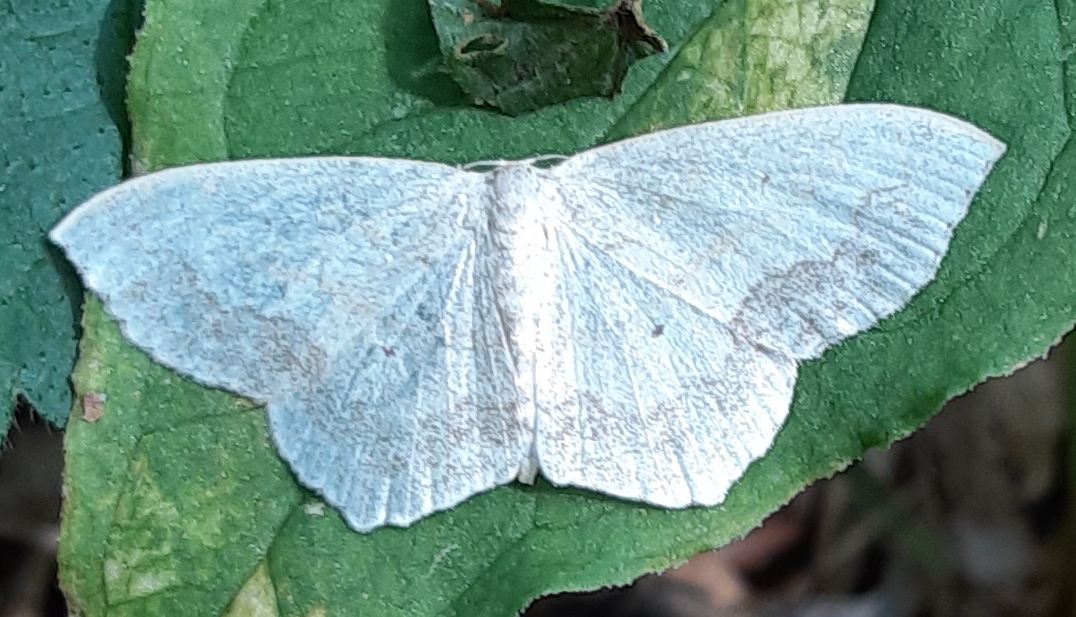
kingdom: Animalia
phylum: Arthropoda
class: Insecta
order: Lepidoptera
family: Geometridae
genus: Scopula
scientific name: Scopula limboundata
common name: Large lace border
